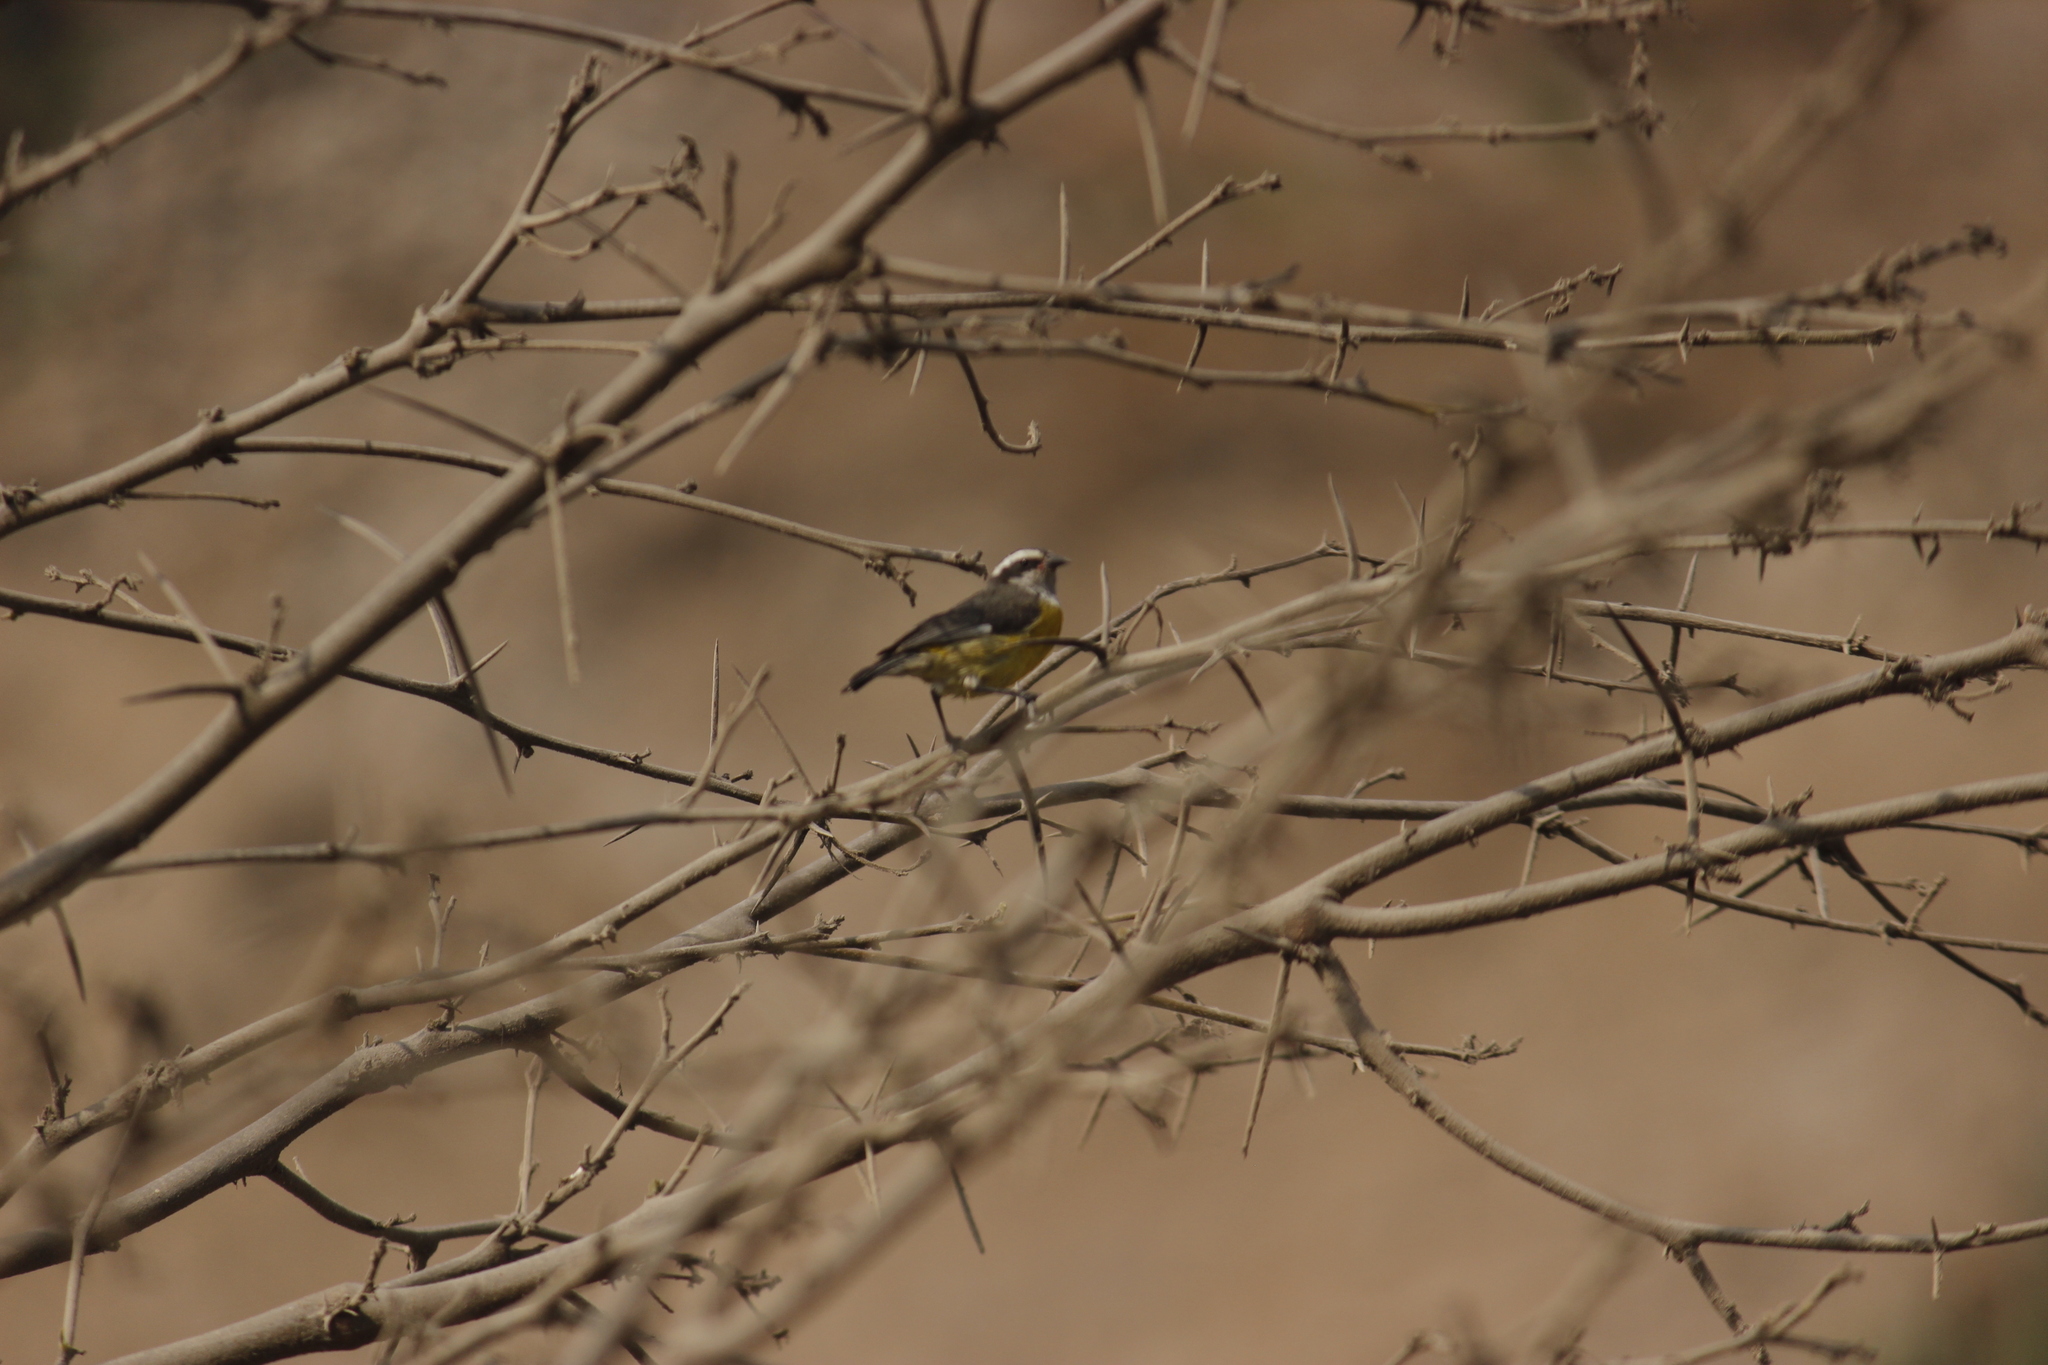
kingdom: Animalia
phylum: Chordata
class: Aves
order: Passeriformes
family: Thraupidae
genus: Coereba
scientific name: Coereba flaveola
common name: Bananaquit
